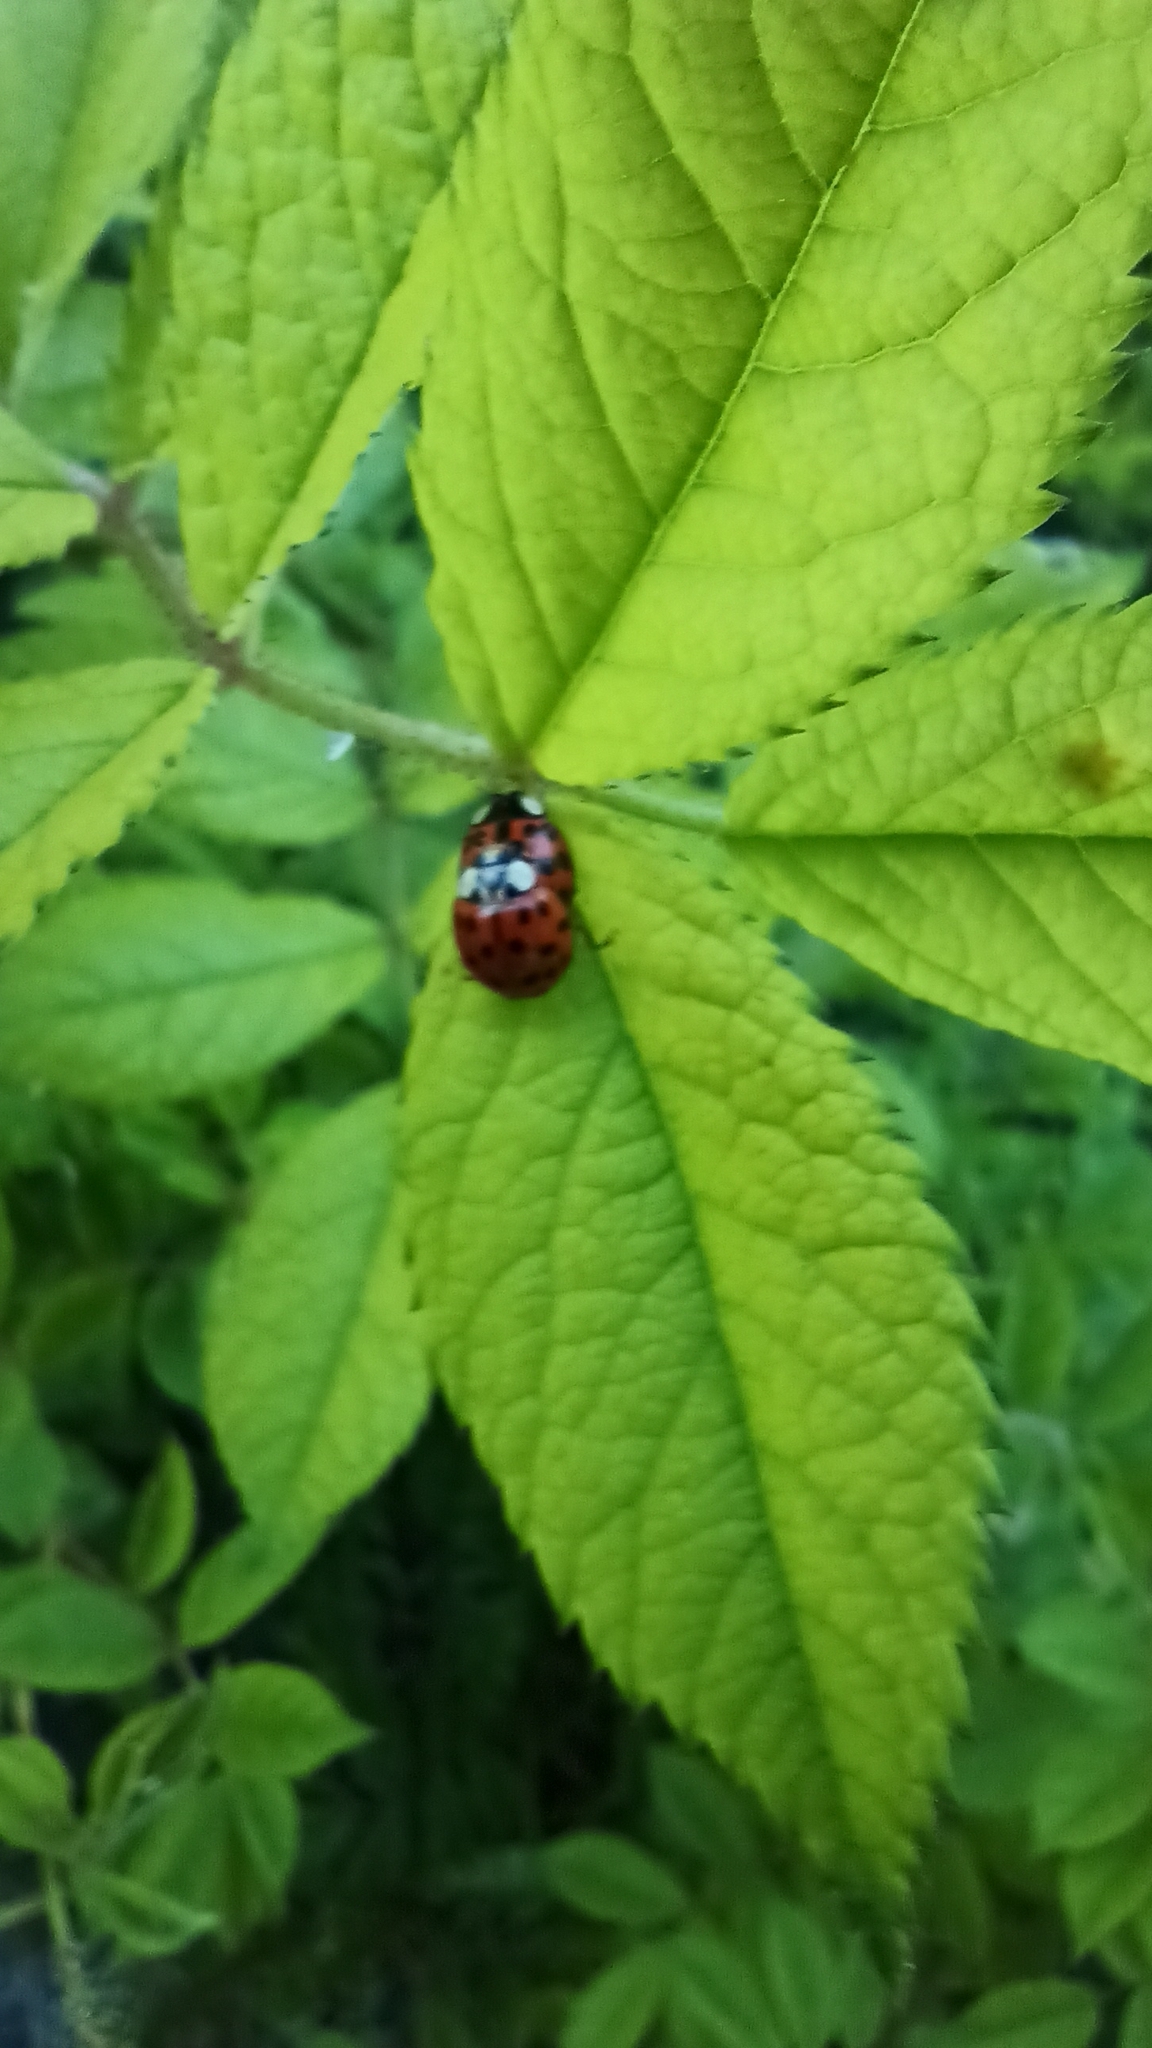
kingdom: Animalia
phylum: Arthropoda
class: Insecta
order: Coleoptera
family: Coccinellidae
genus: Harmonia
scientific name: Harmonia axyridis
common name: Harlequin ladybird
